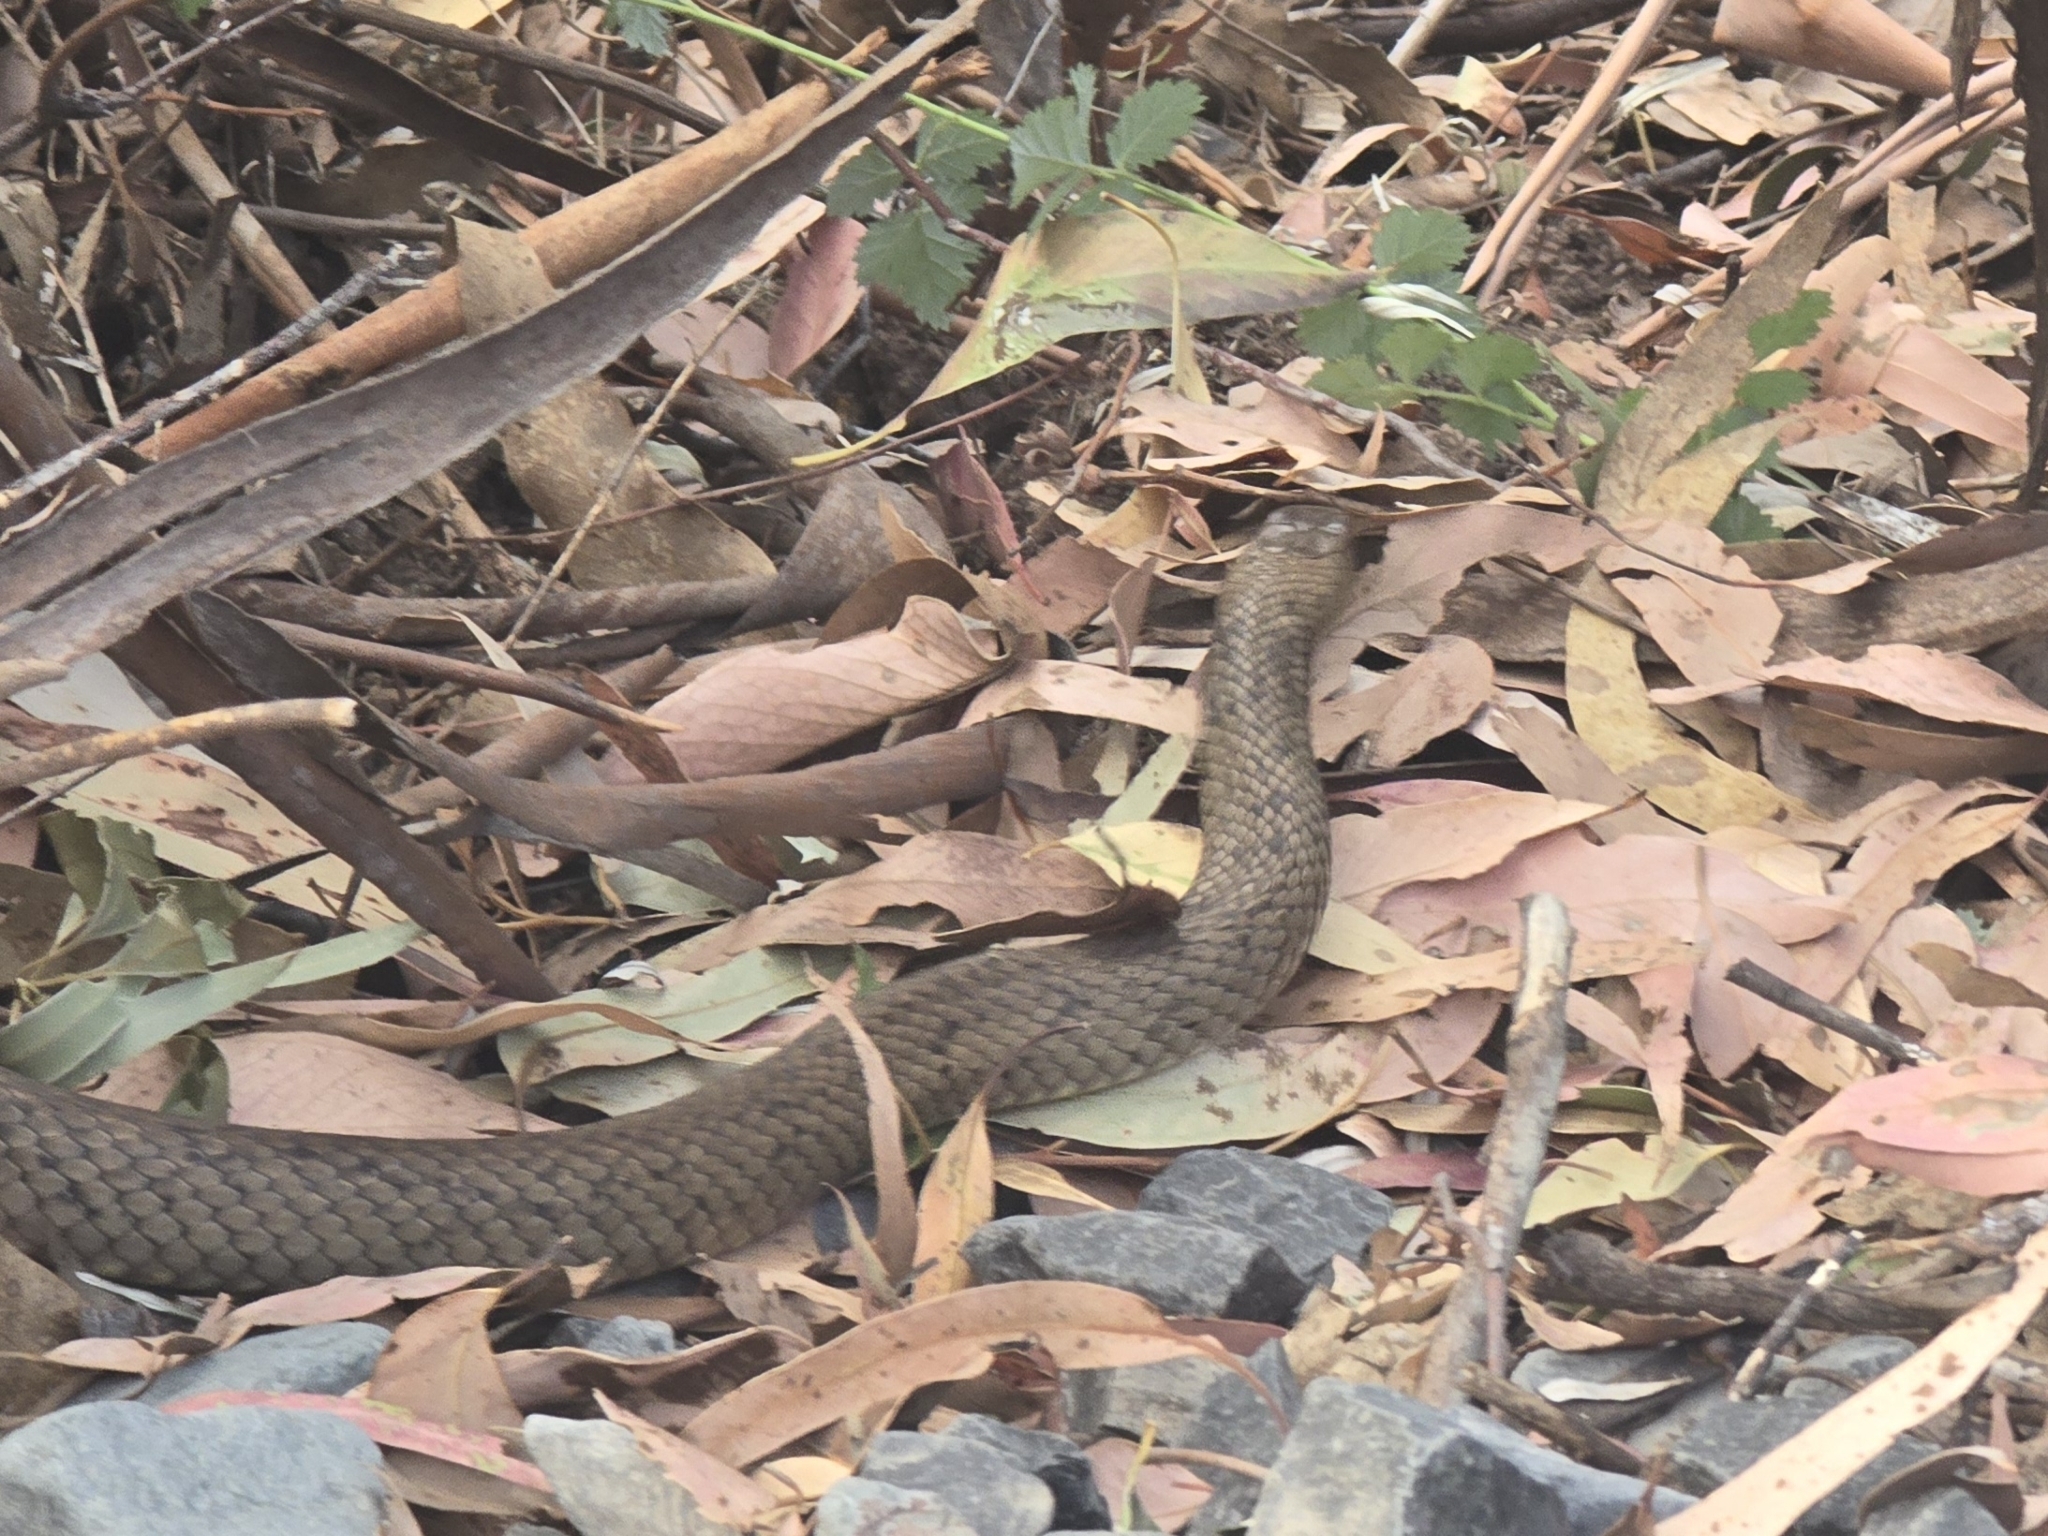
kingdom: Animalia
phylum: Chordata
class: Squamata
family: Elapidae
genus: Pseudonaja
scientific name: Pseudonaja textilis
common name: Eastern brown snake
